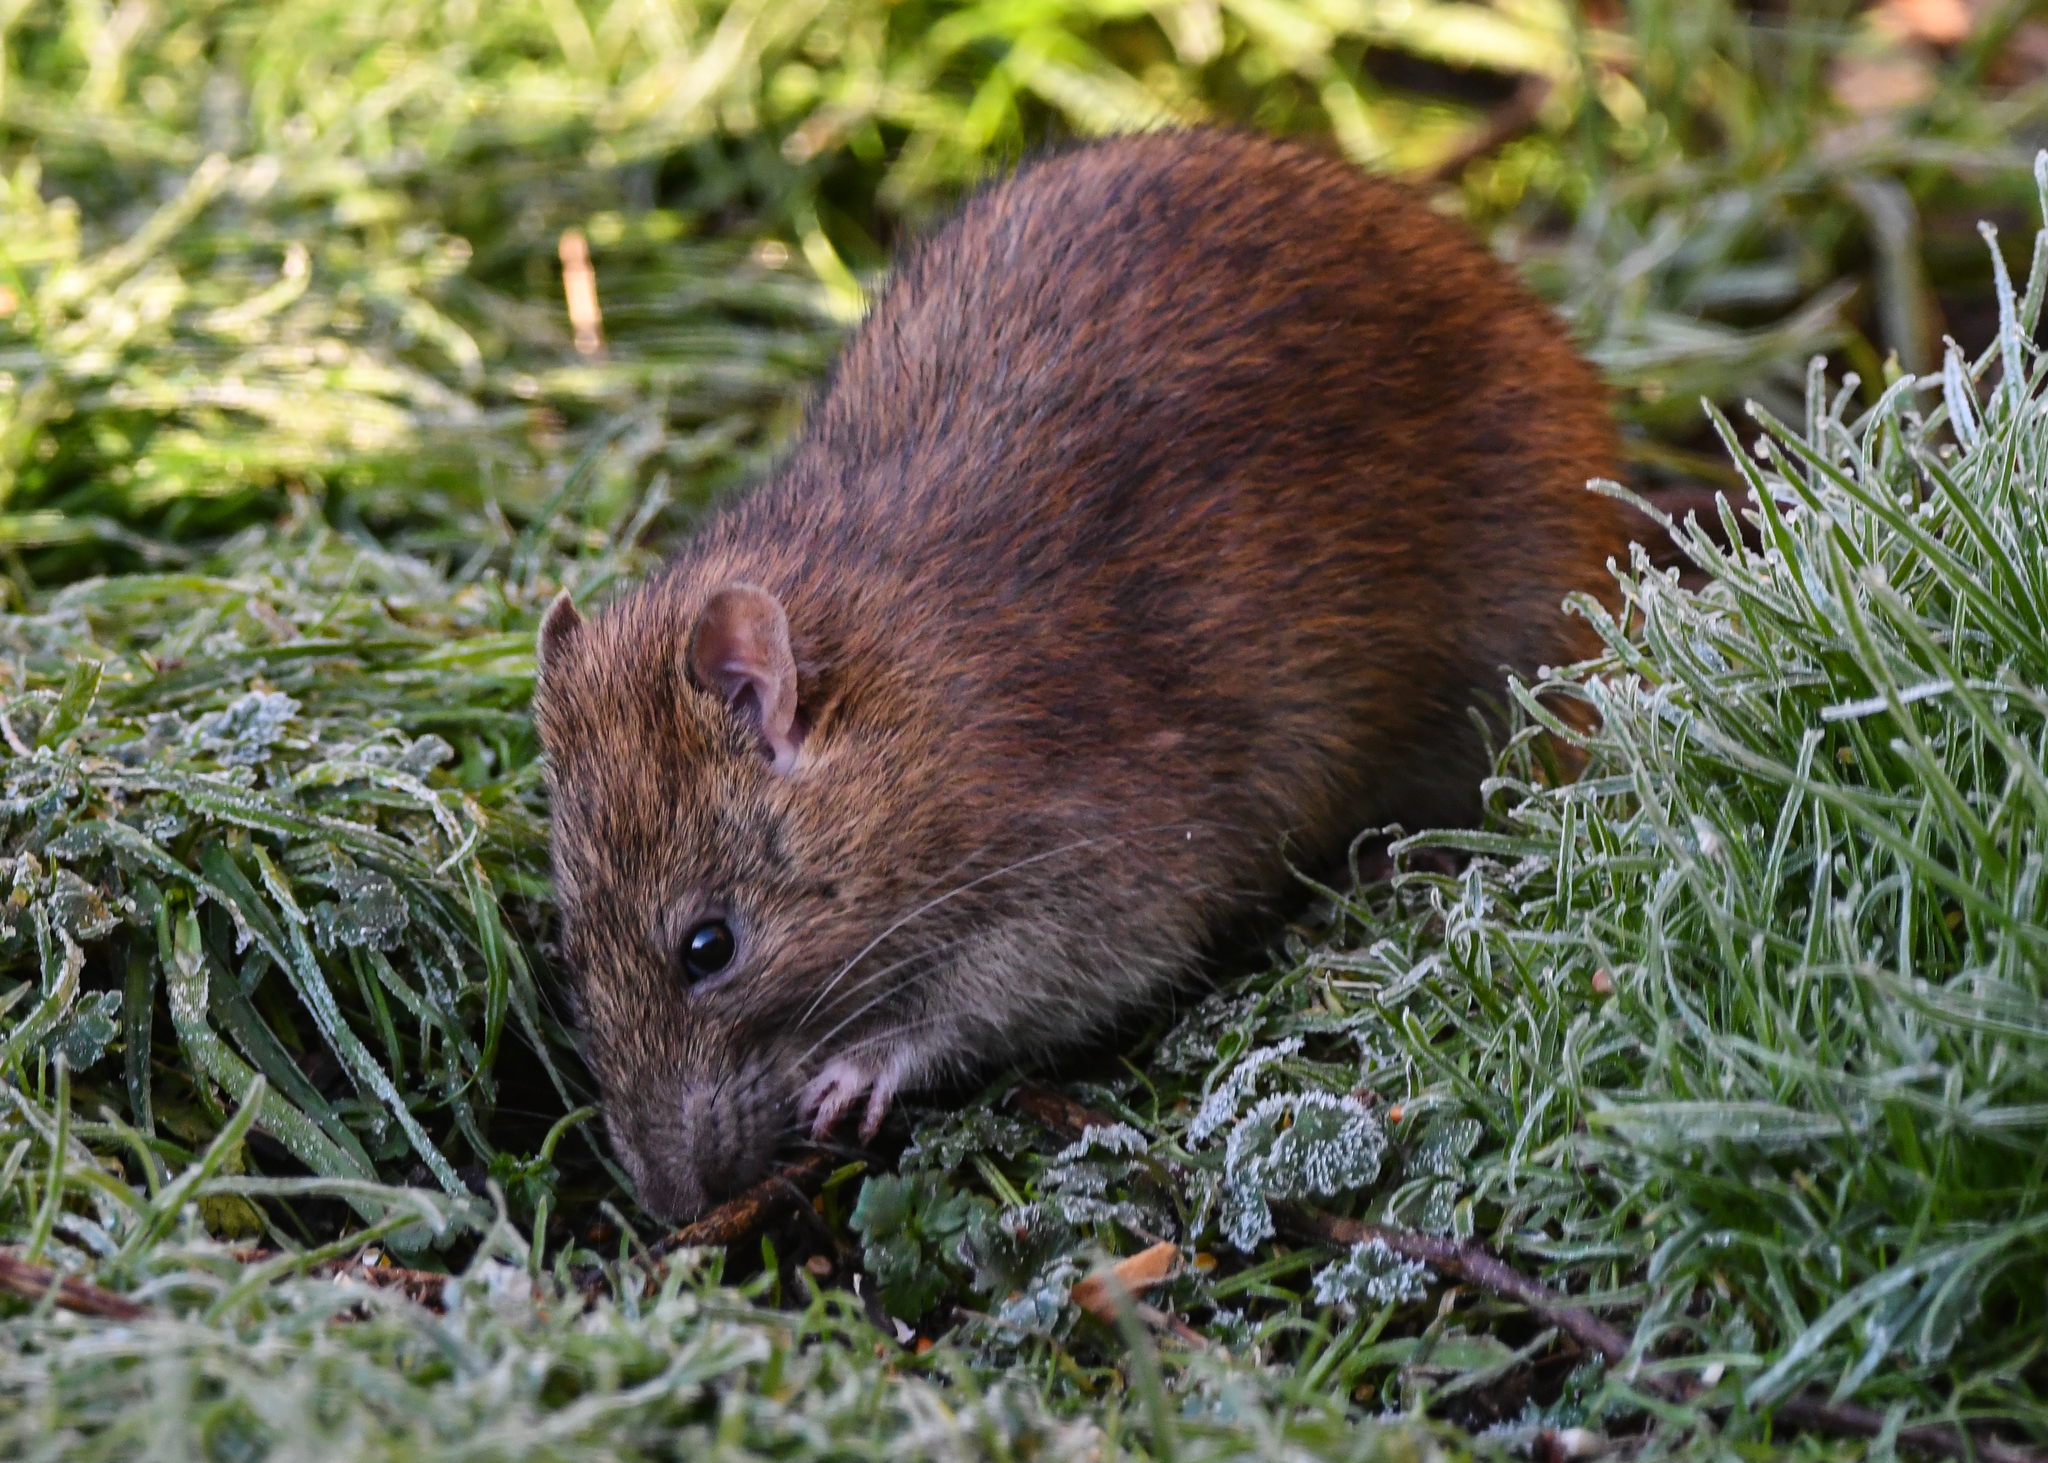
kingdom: Animalia
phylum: Chordata
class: Mammalia
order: Rodentia
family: Muridae
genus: Rattus
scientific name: Rattus norvegicus
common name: Brown rat
